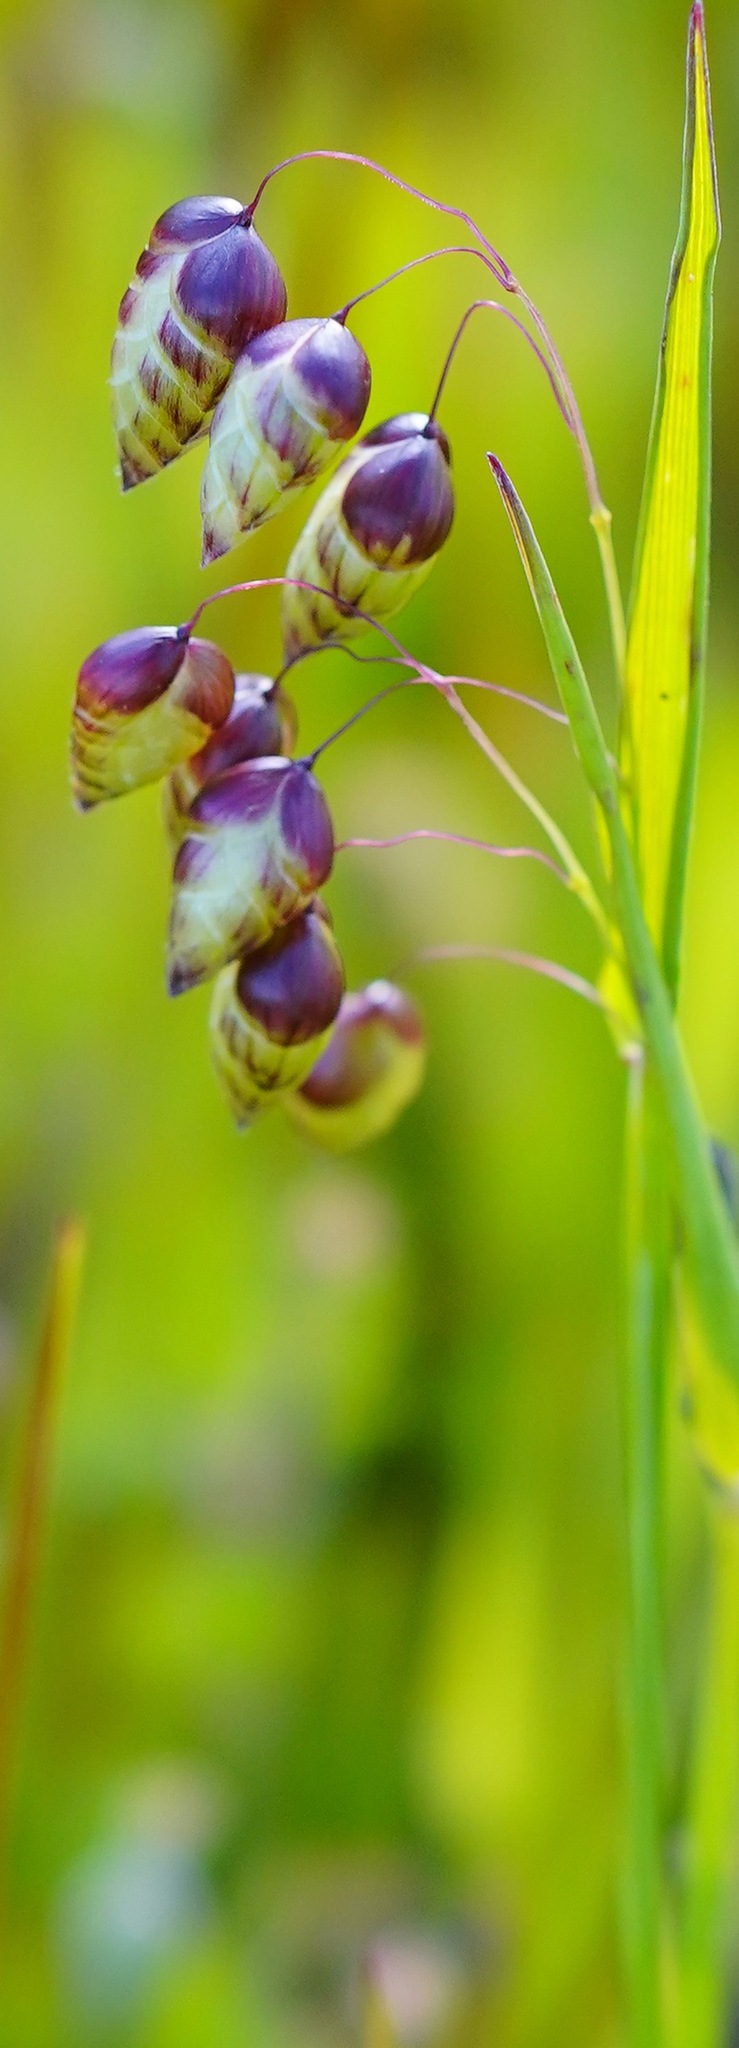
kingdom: Plantae
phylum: Tracheophyta
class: Liliopsida
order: Poales
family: Poaceae
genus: Briza
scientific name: Briza maxima
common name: Big quakinggrass
